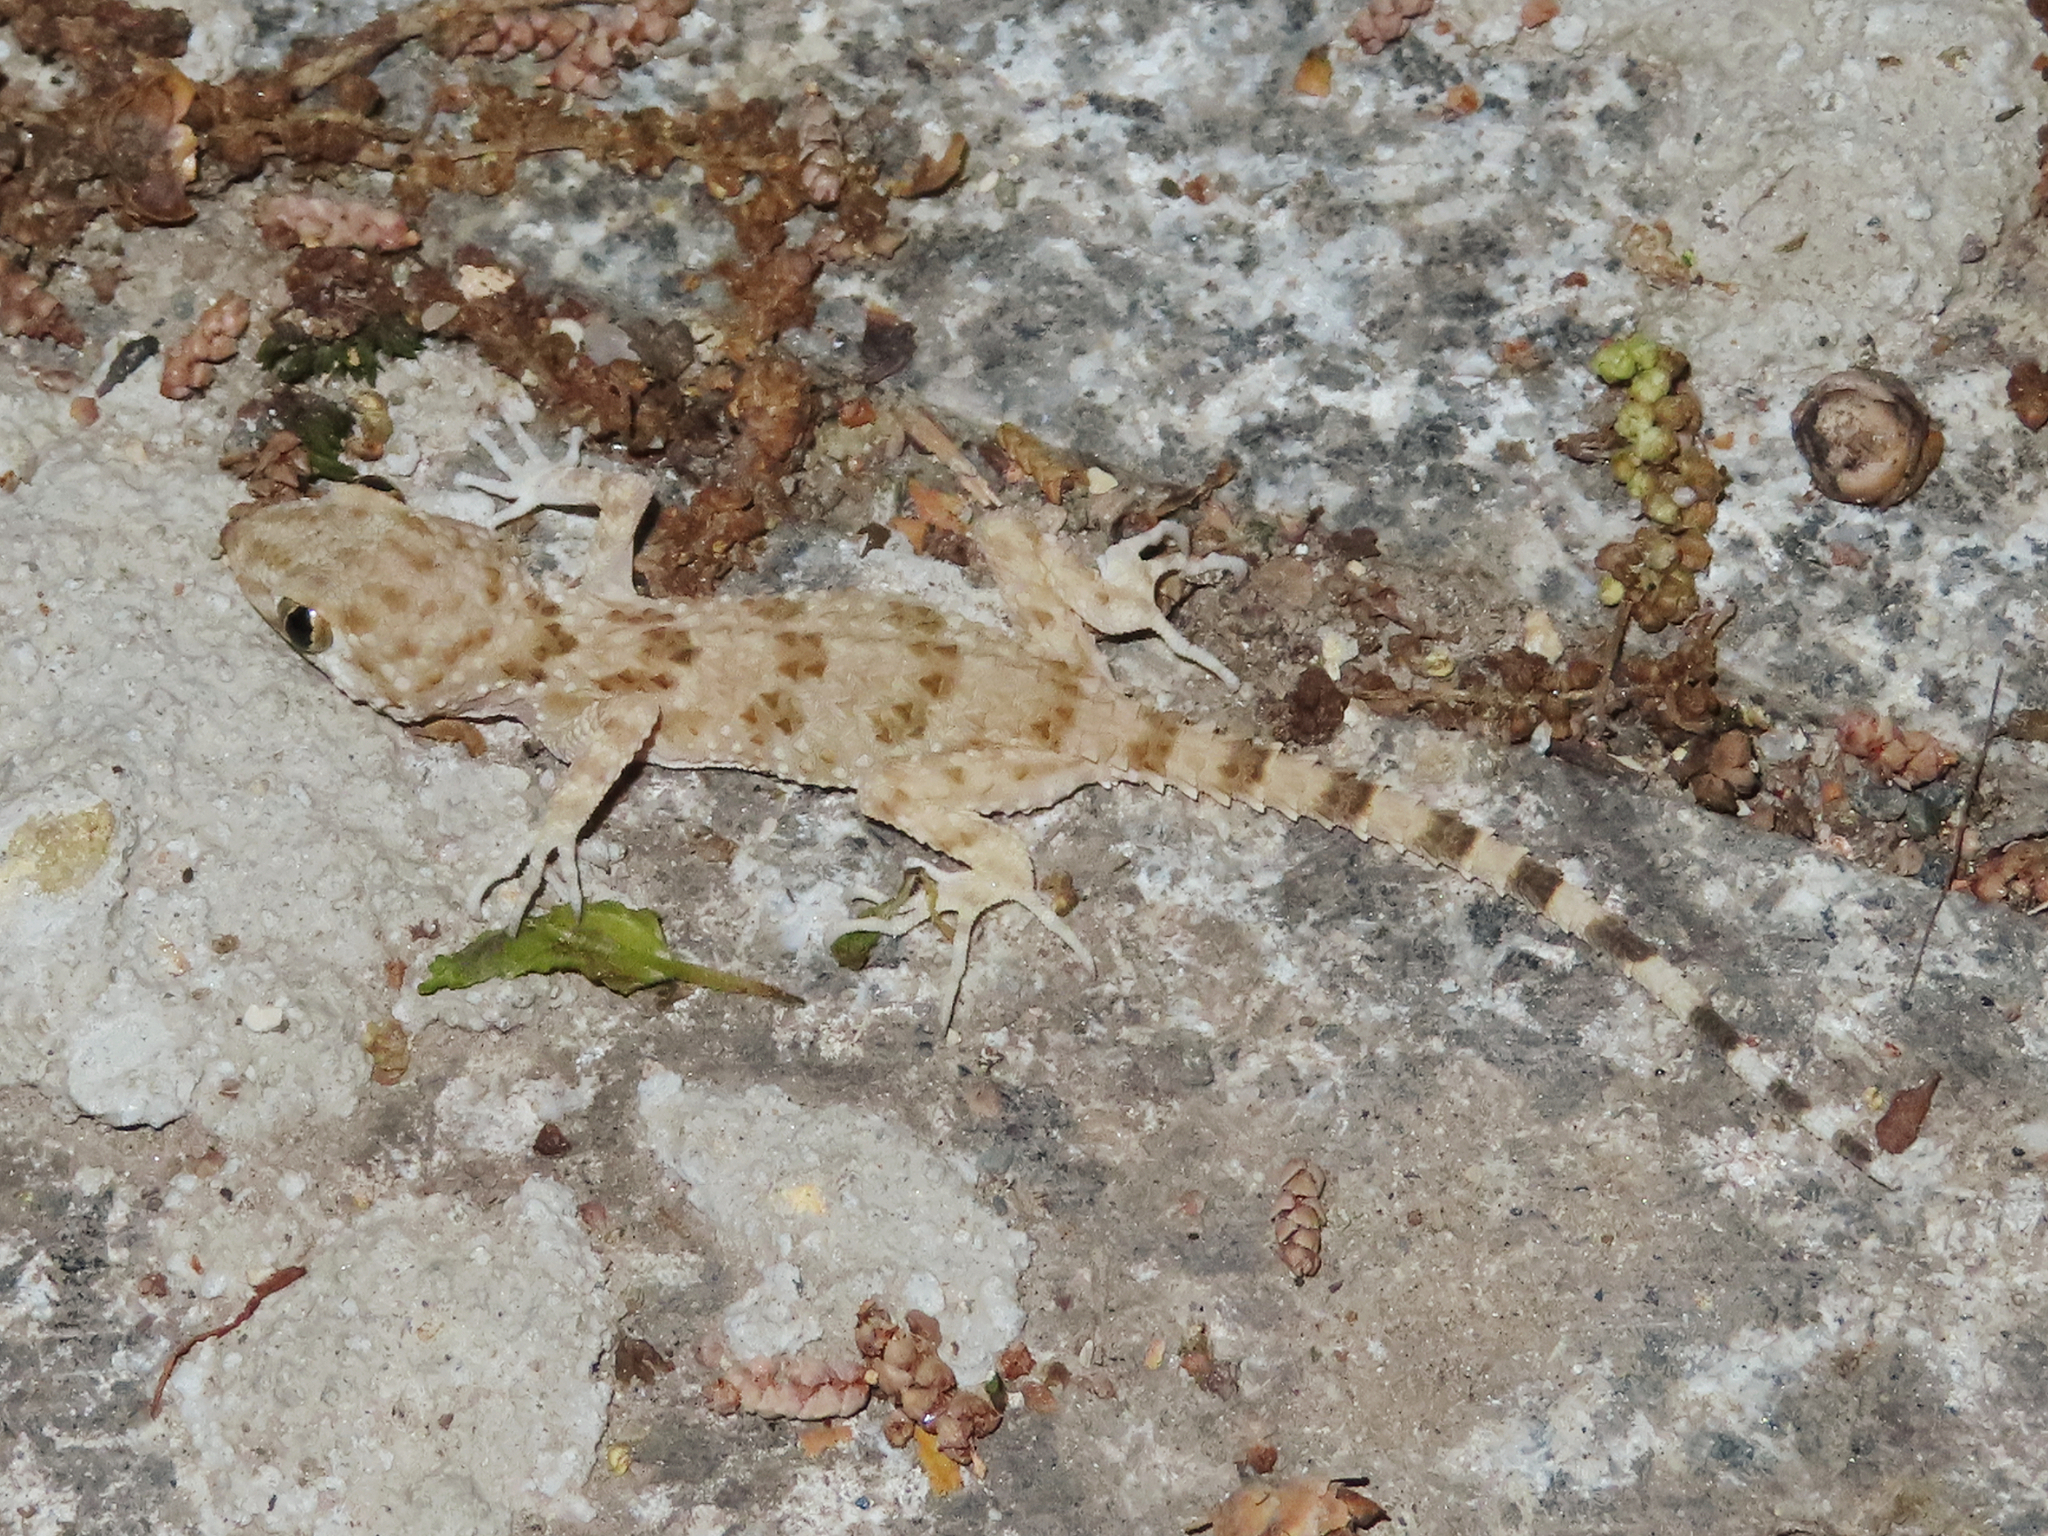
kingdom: Animalia
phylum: Chordata
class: Squamata
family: Gekkonidae
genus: Tenuidactylus
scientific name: Tenuidactylus caspius
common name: Caspian bent-toed gecko
